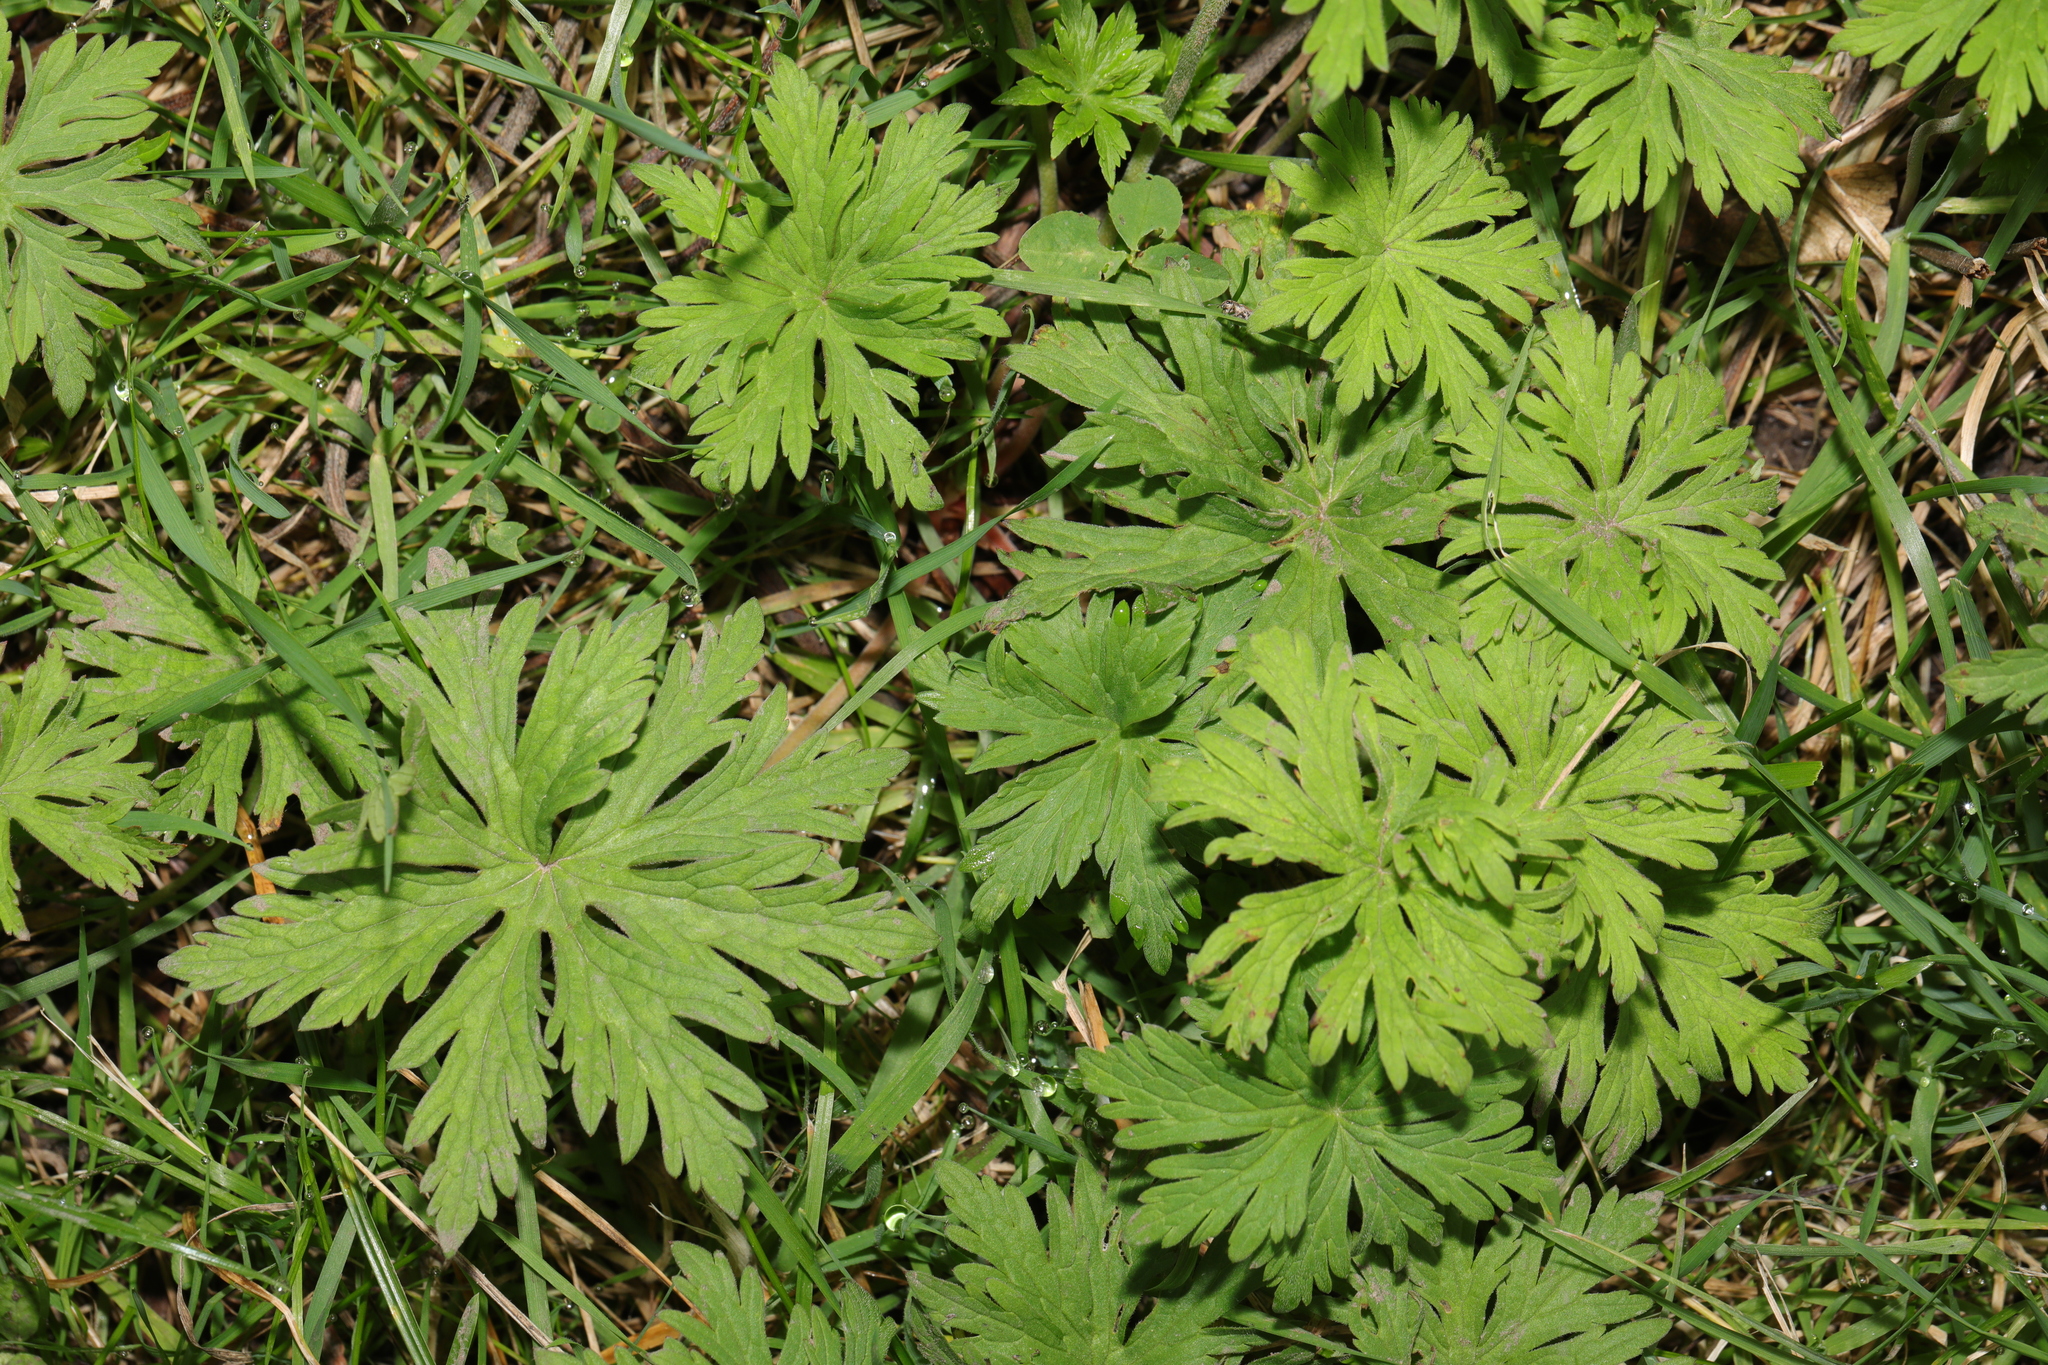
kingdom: Plantae
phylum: Tracheophyta
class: Magnoliopsida
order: Geraniales
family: Geraniaceae
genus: Geranium
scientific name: Geranium pratense
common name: Meadow crane's-bill
